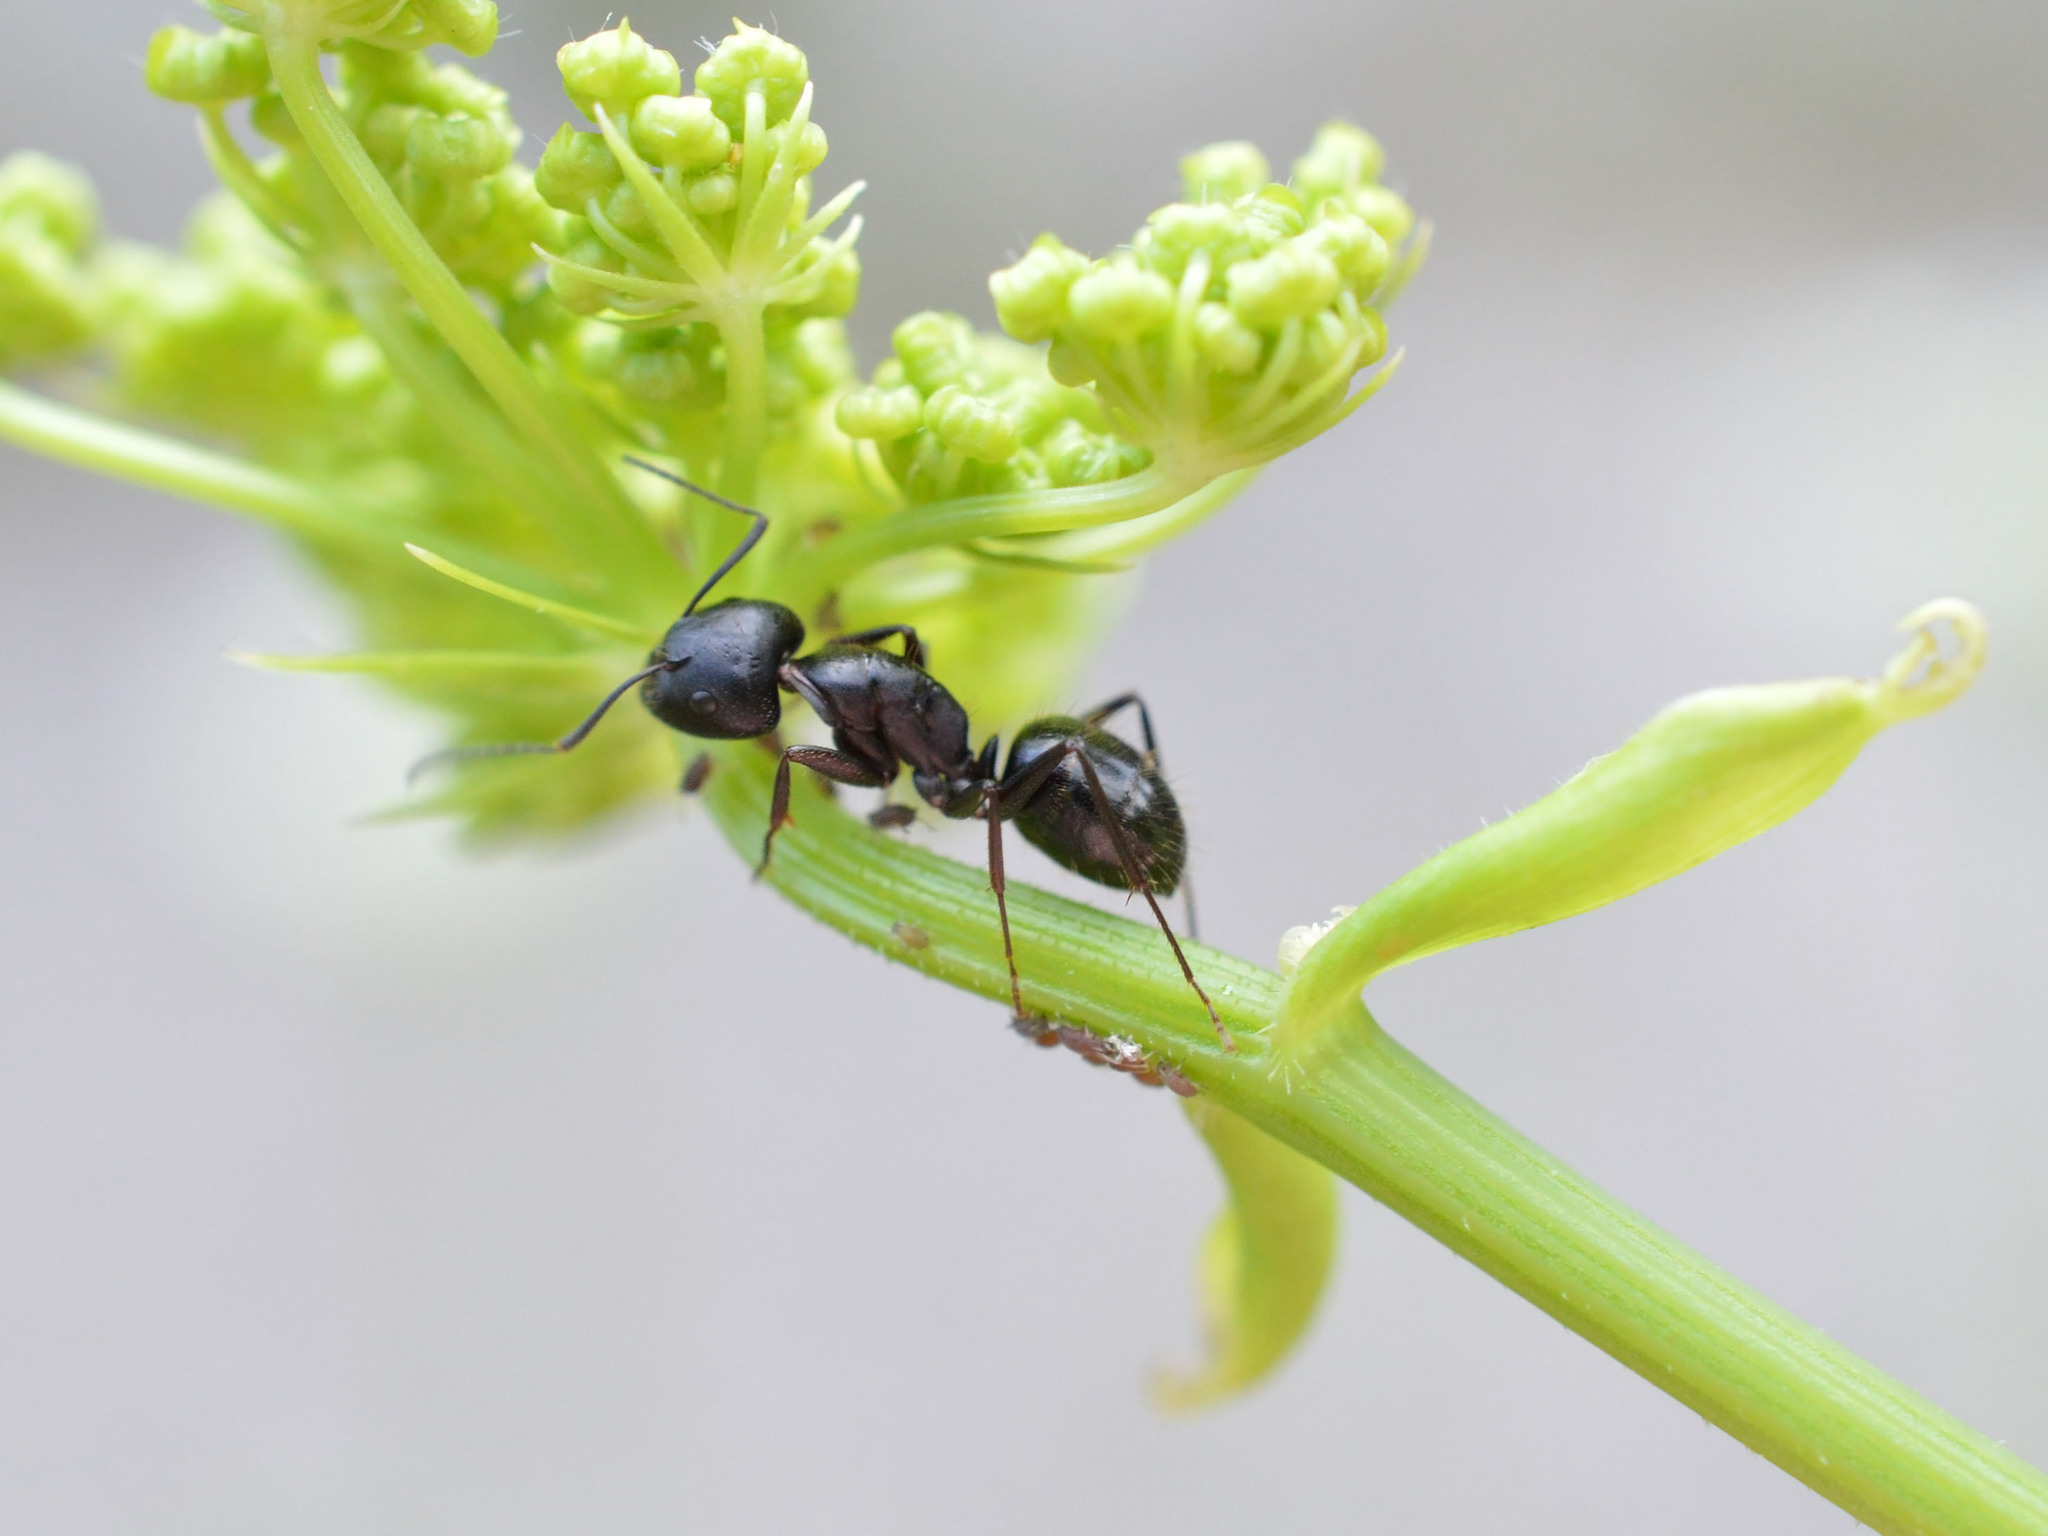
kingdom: Animalia
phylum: Arthropoda
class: Insecta
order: Hymenoptera
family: Formicidae
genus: Camponotus
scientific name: Camponotus aethiops
